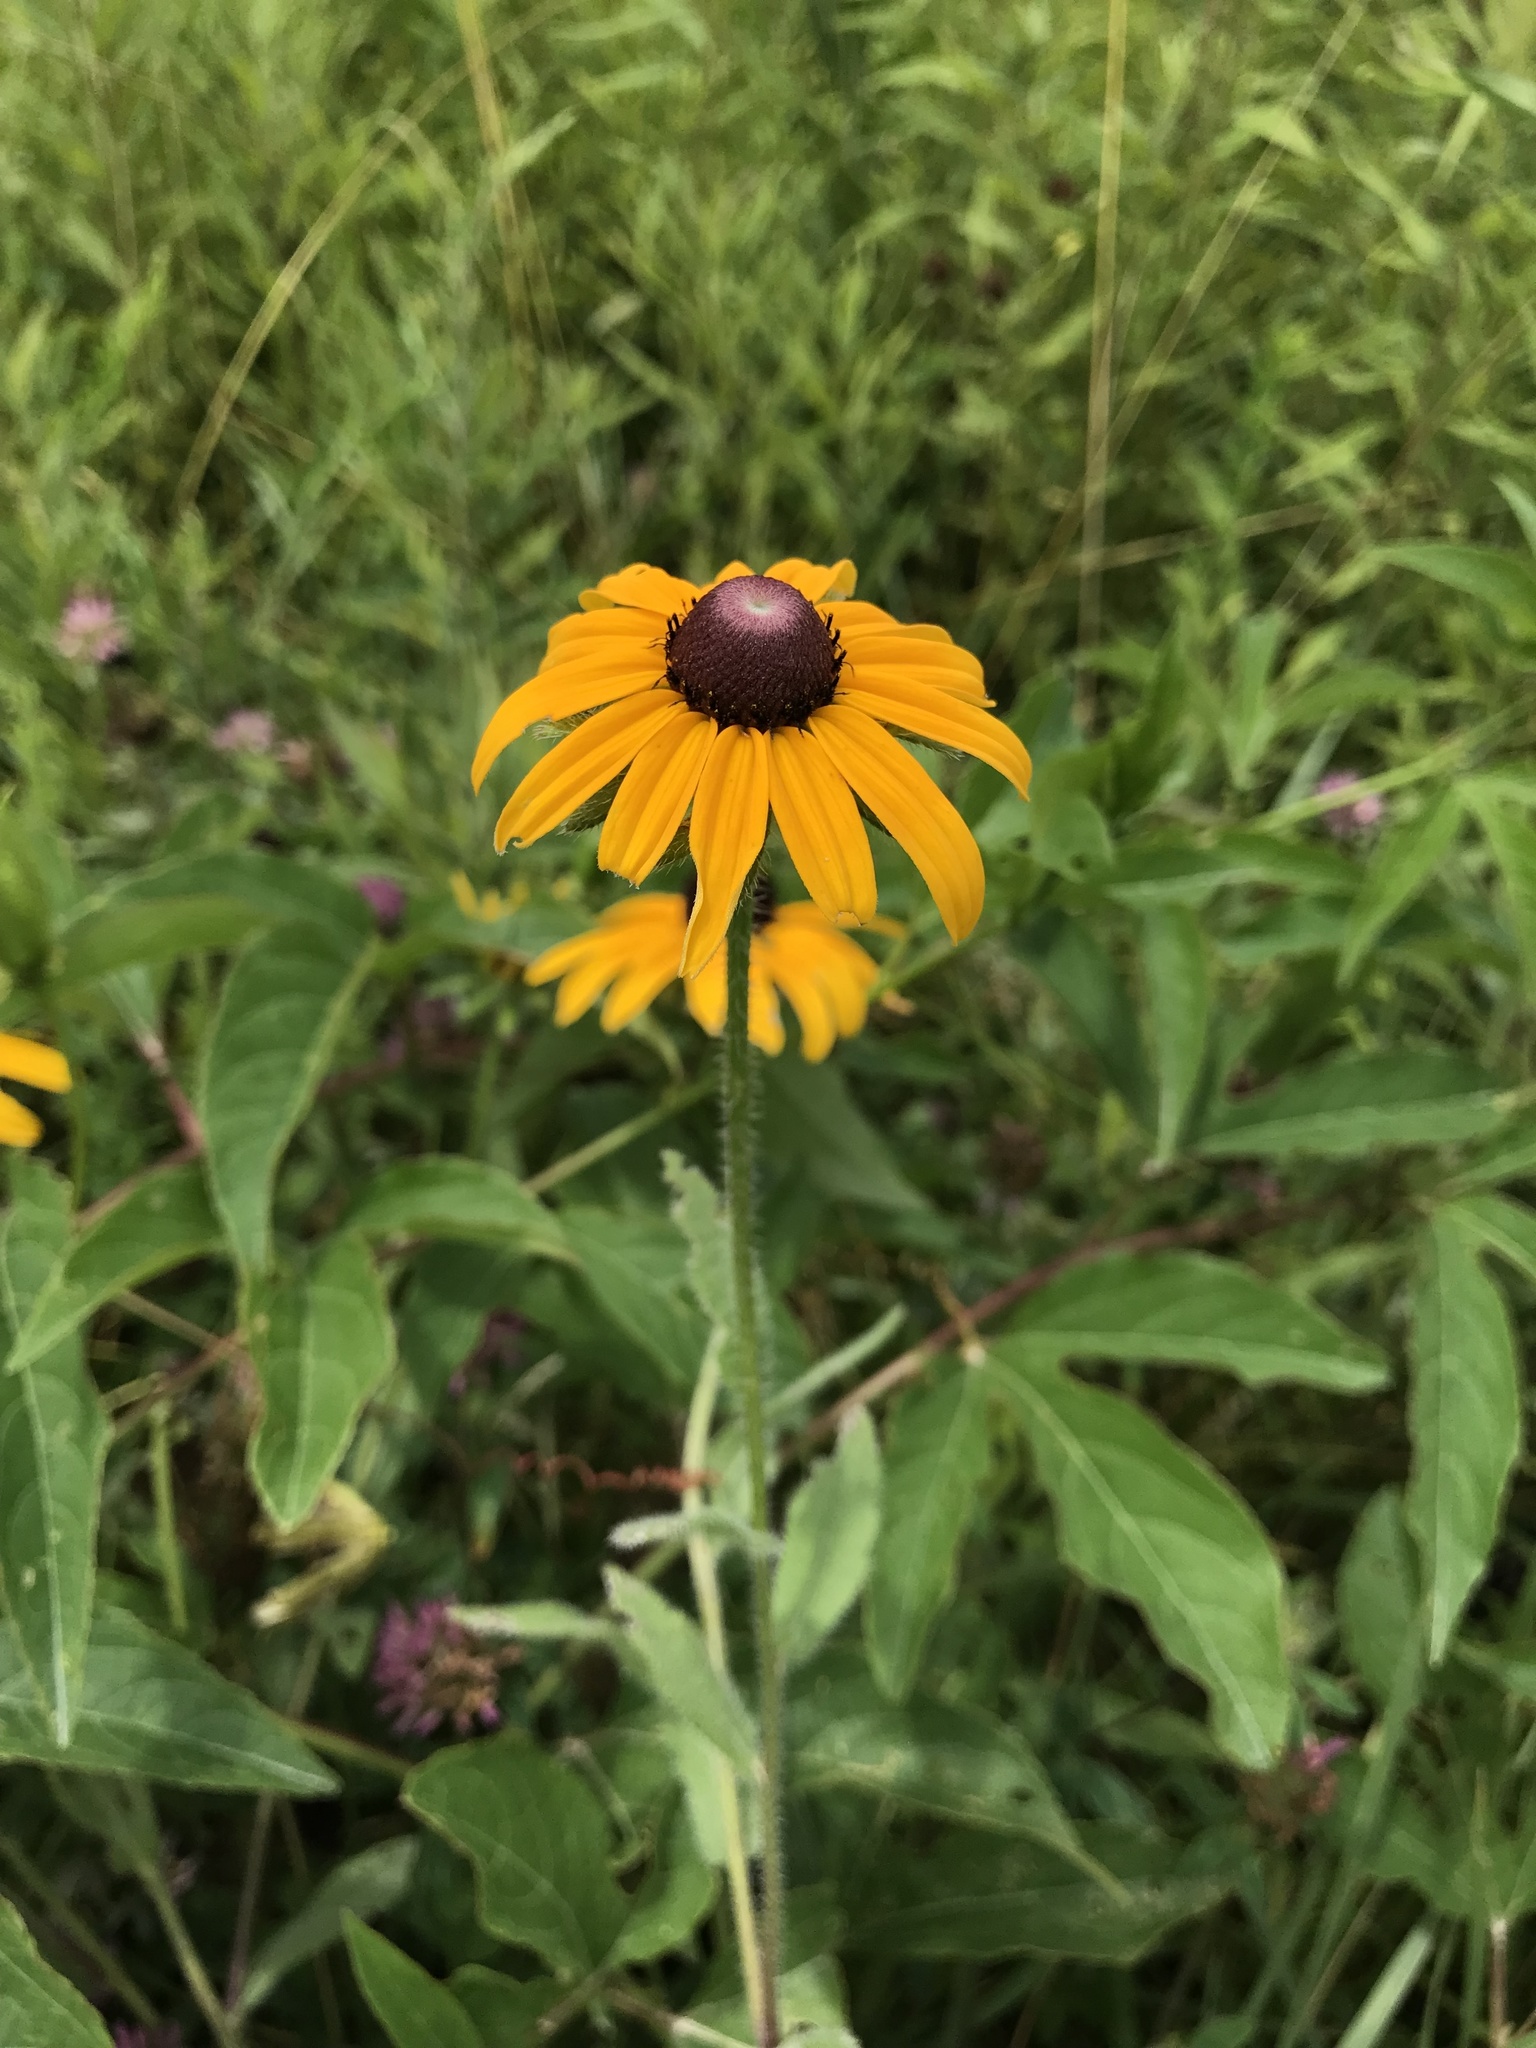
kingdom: Plantae
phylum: Tracheophyta
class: Magnoliopsida
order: Asterales
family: Asteraceae
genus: Rudbeckia
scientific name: Rudbeckia hirta
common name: Black-eyed-susan
